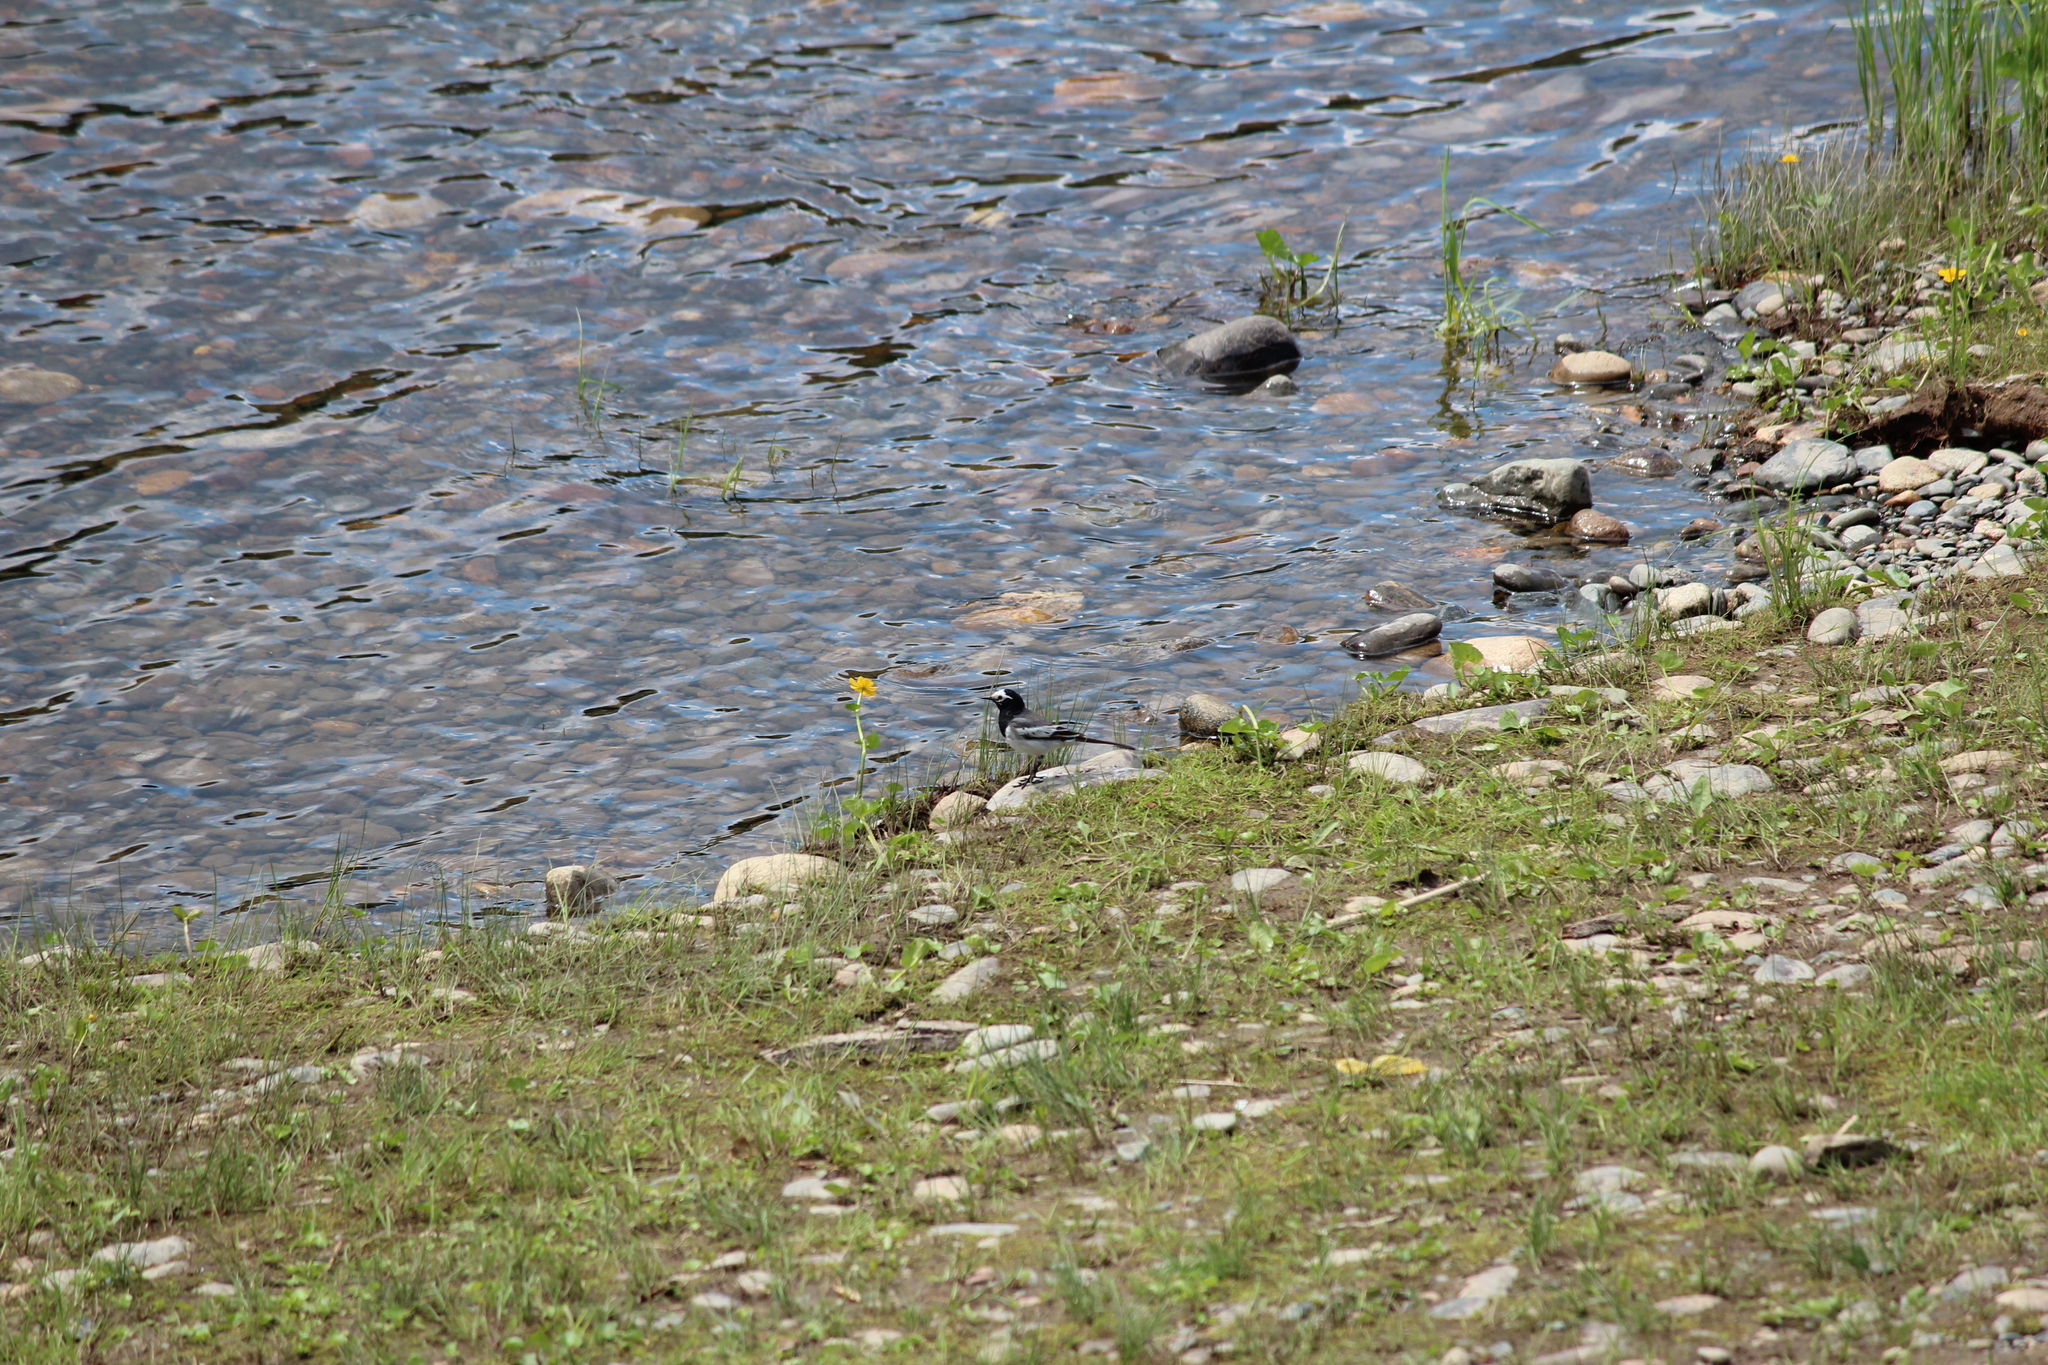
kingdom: Animalia
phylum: Chordata
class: Aves
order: Passeriformes
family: Motacillidae
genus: Motacilla
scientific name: Motacilla alba
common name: White wagtail
